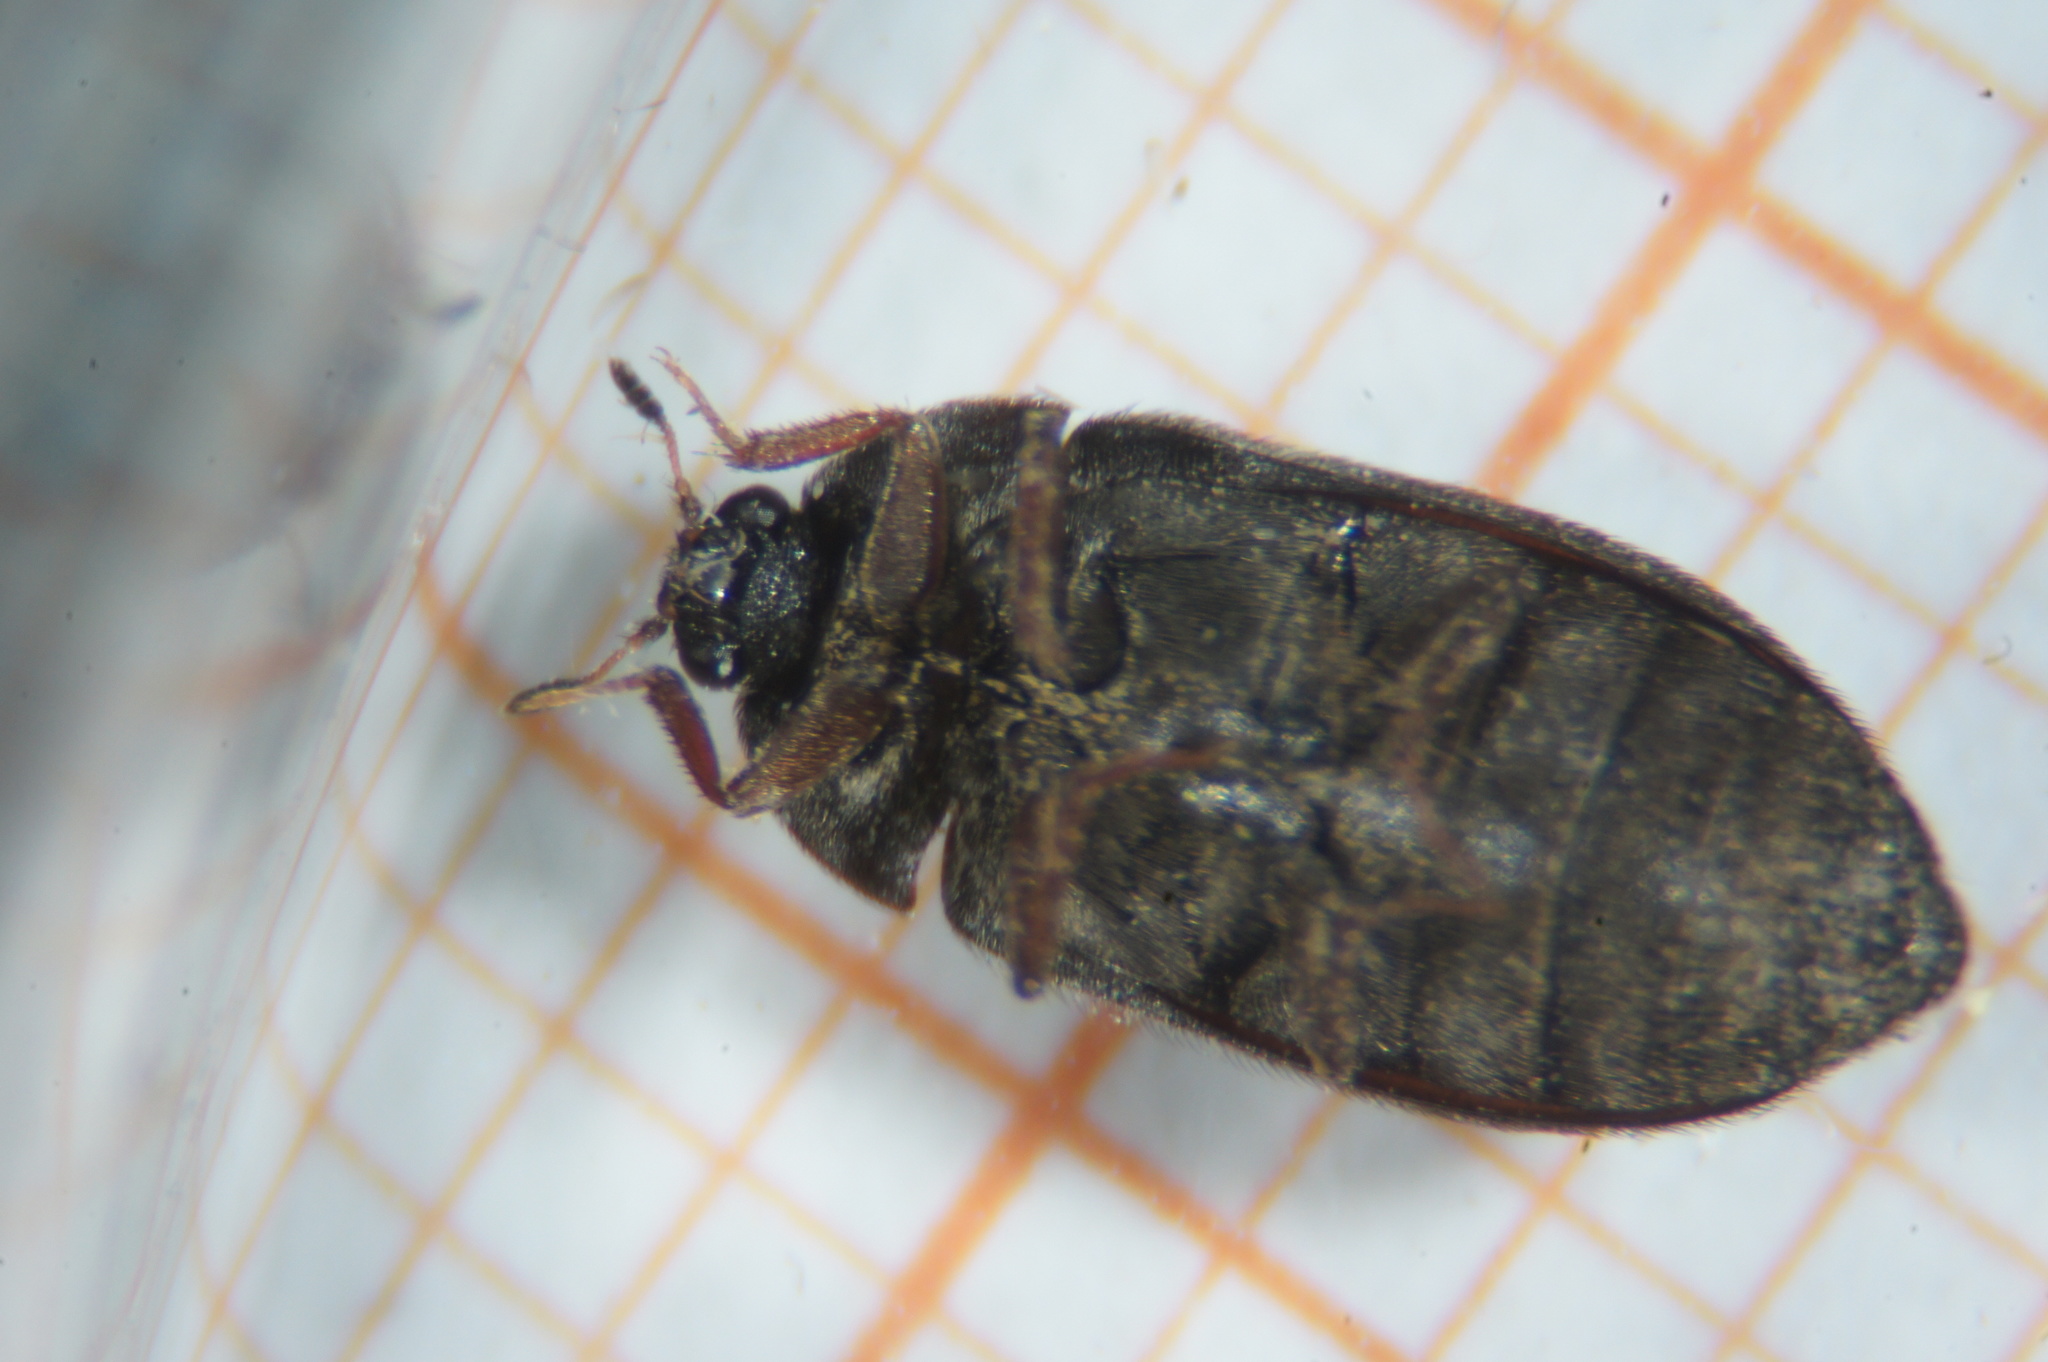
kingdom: Animalia
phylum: Arthropoda
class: Insecta
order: Coleoptera
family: Dermestidae
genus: Attagenus
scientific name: Attagenus pellio
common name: Two-spotted carpet beetle
